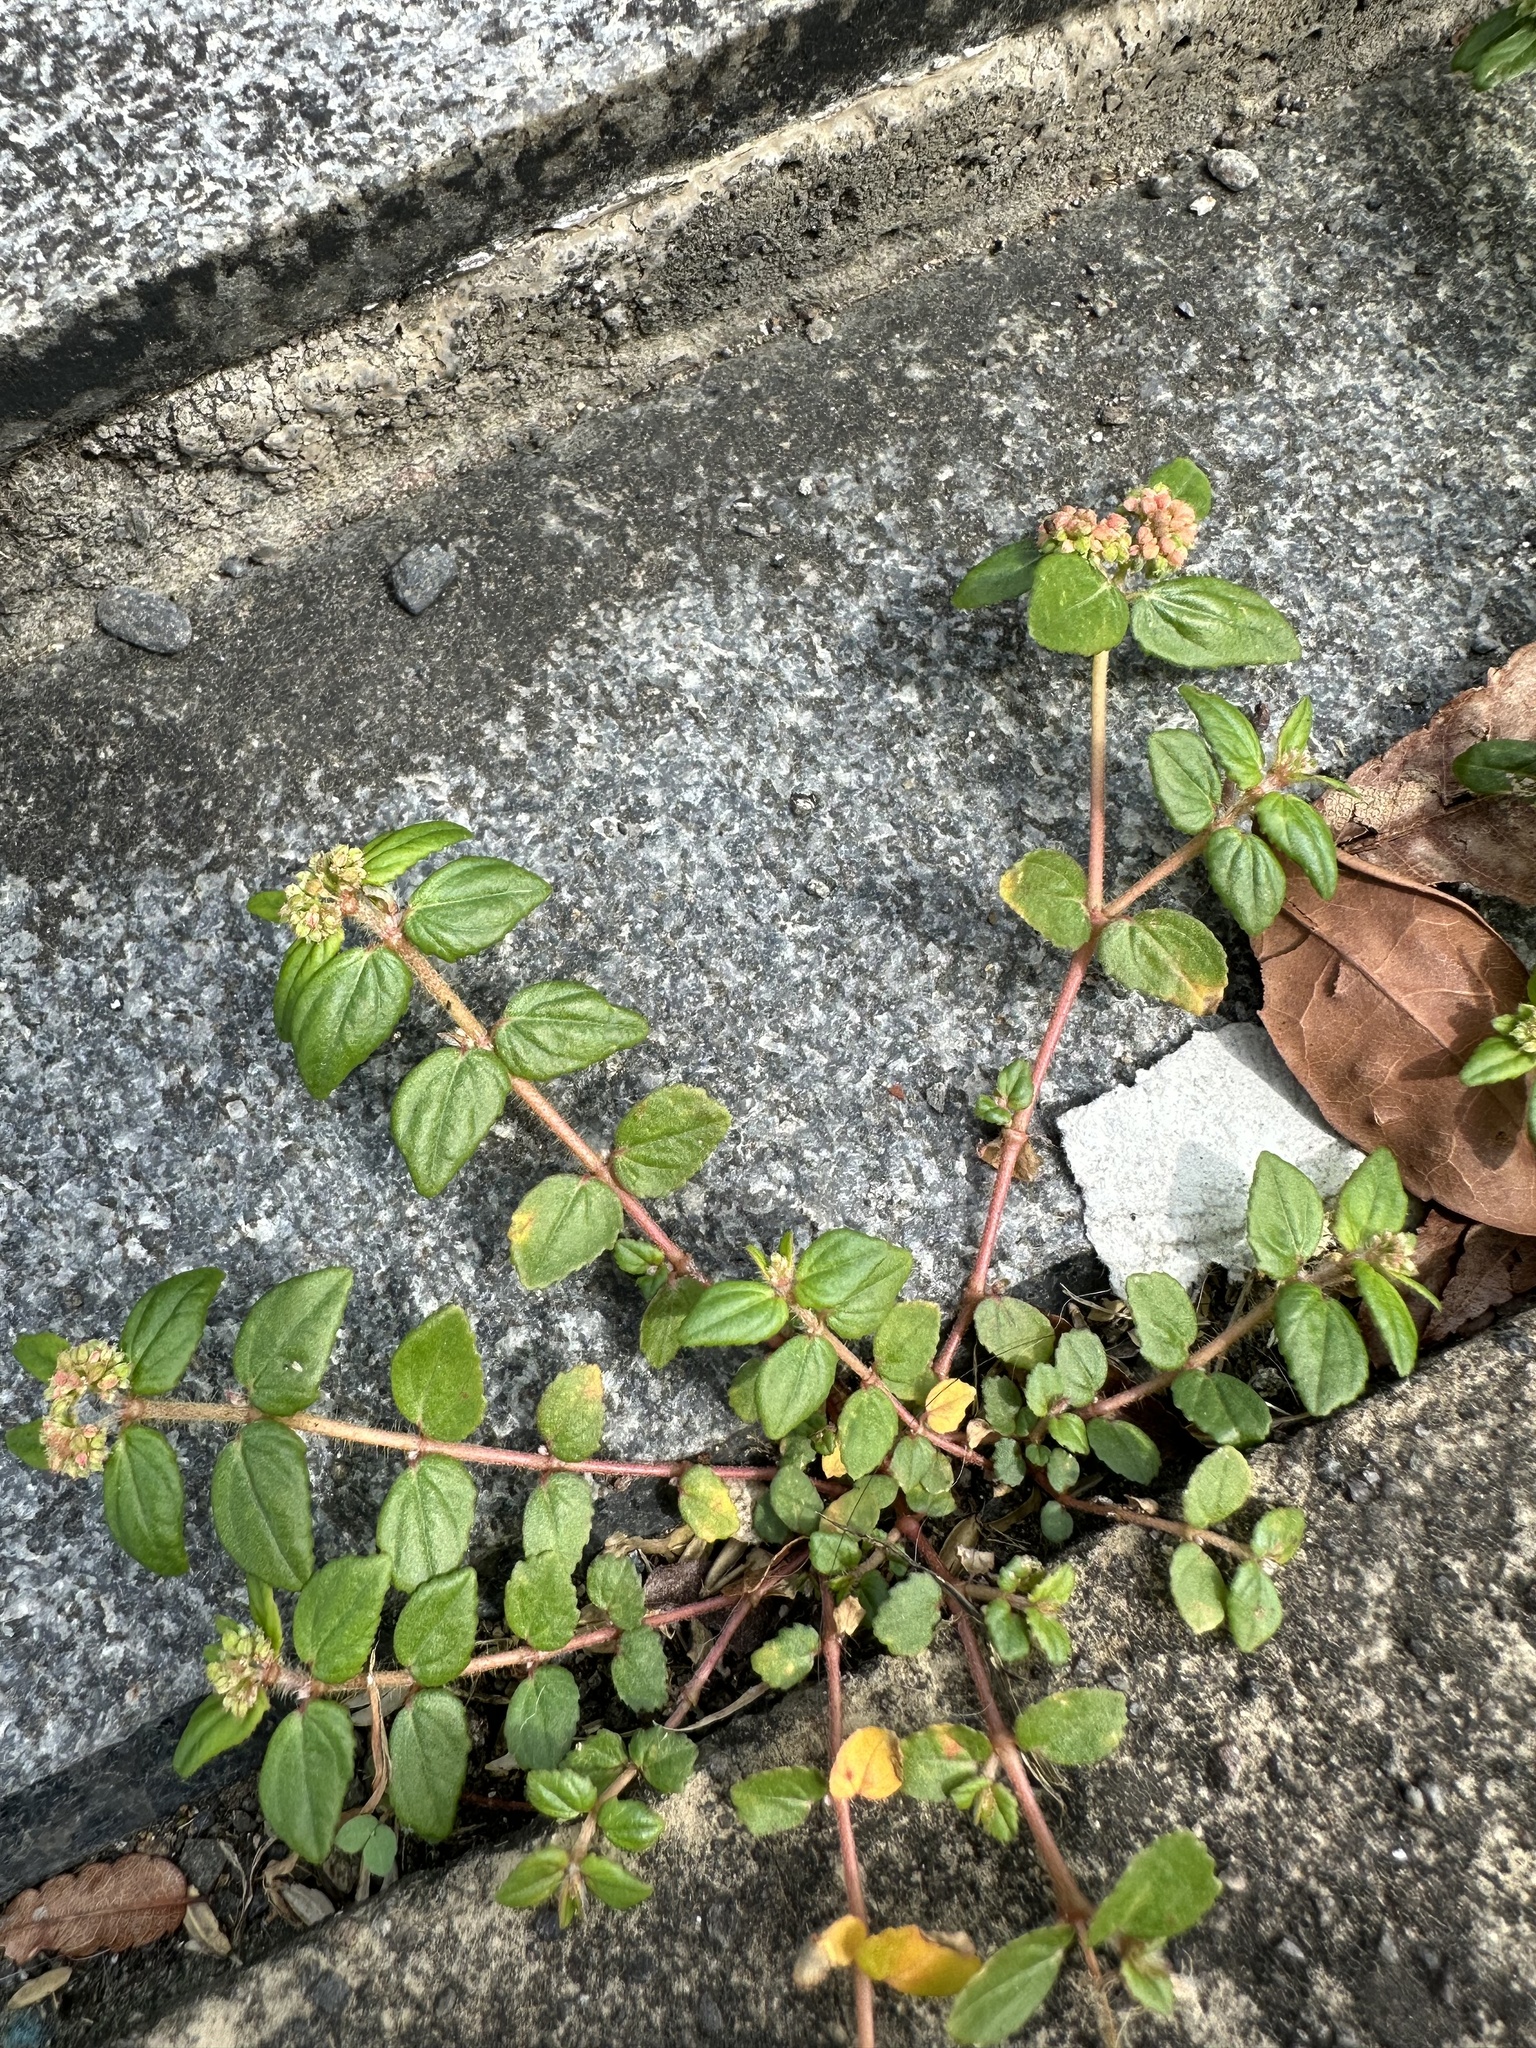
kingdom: Plantae
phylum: Tracheophyta
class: Magnoliopsida
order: Malpighiales
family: Euphorbiaceae
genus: Euphorbia
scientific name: Euphorbia ophthalmica
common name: Florida hammock sandmat
